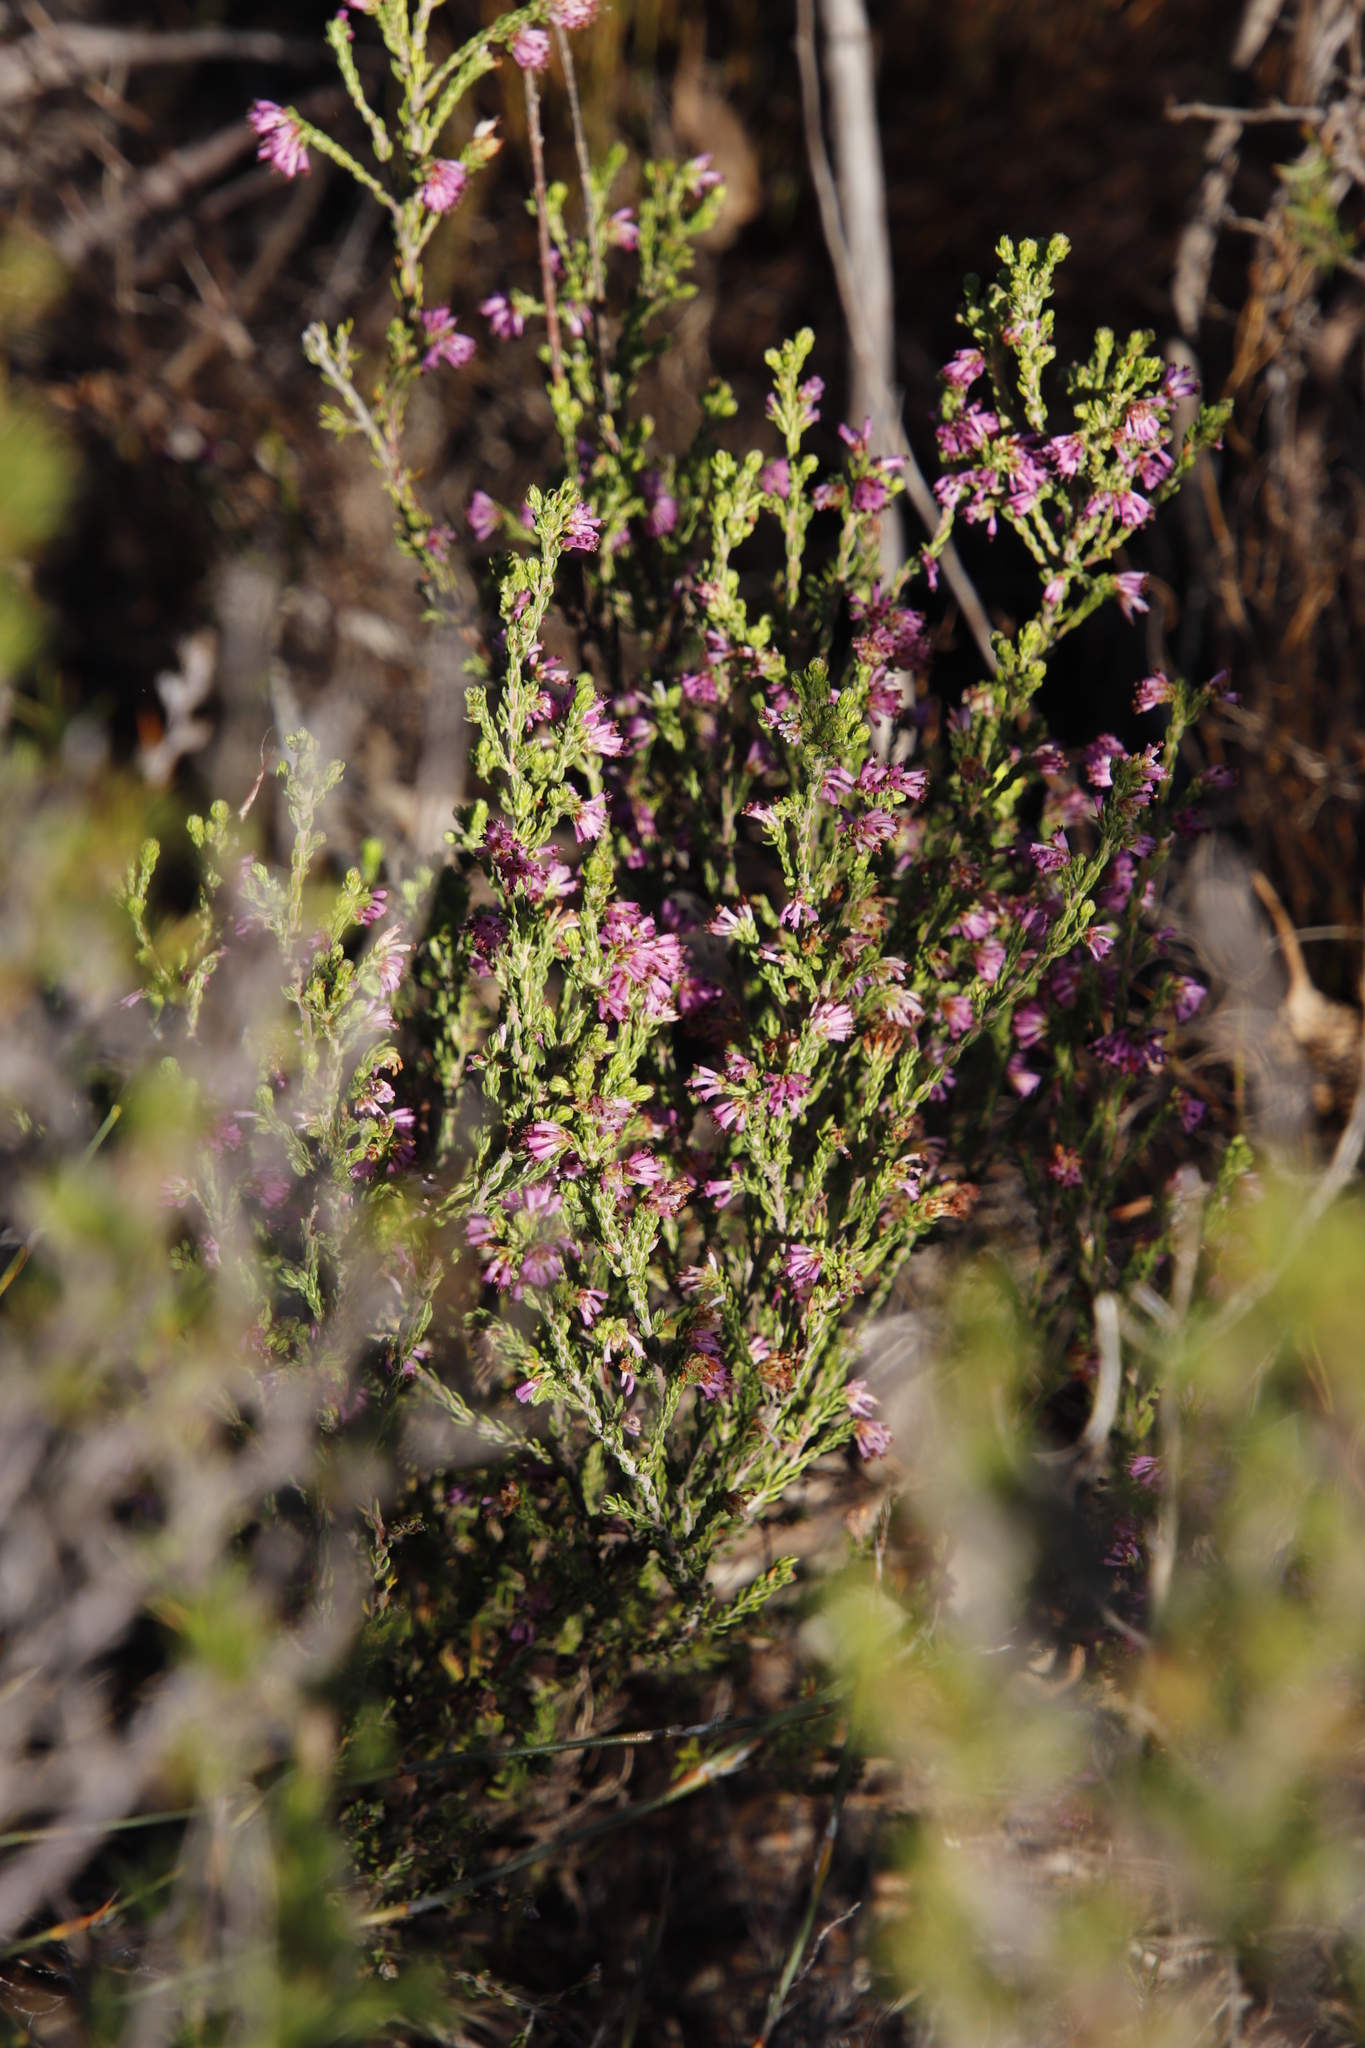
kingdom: Plantae
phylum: Tracheophyta
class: Magnoliopsida
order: Ericales
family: Ericaceae
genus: Erica
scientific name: Erica equisetifolia
